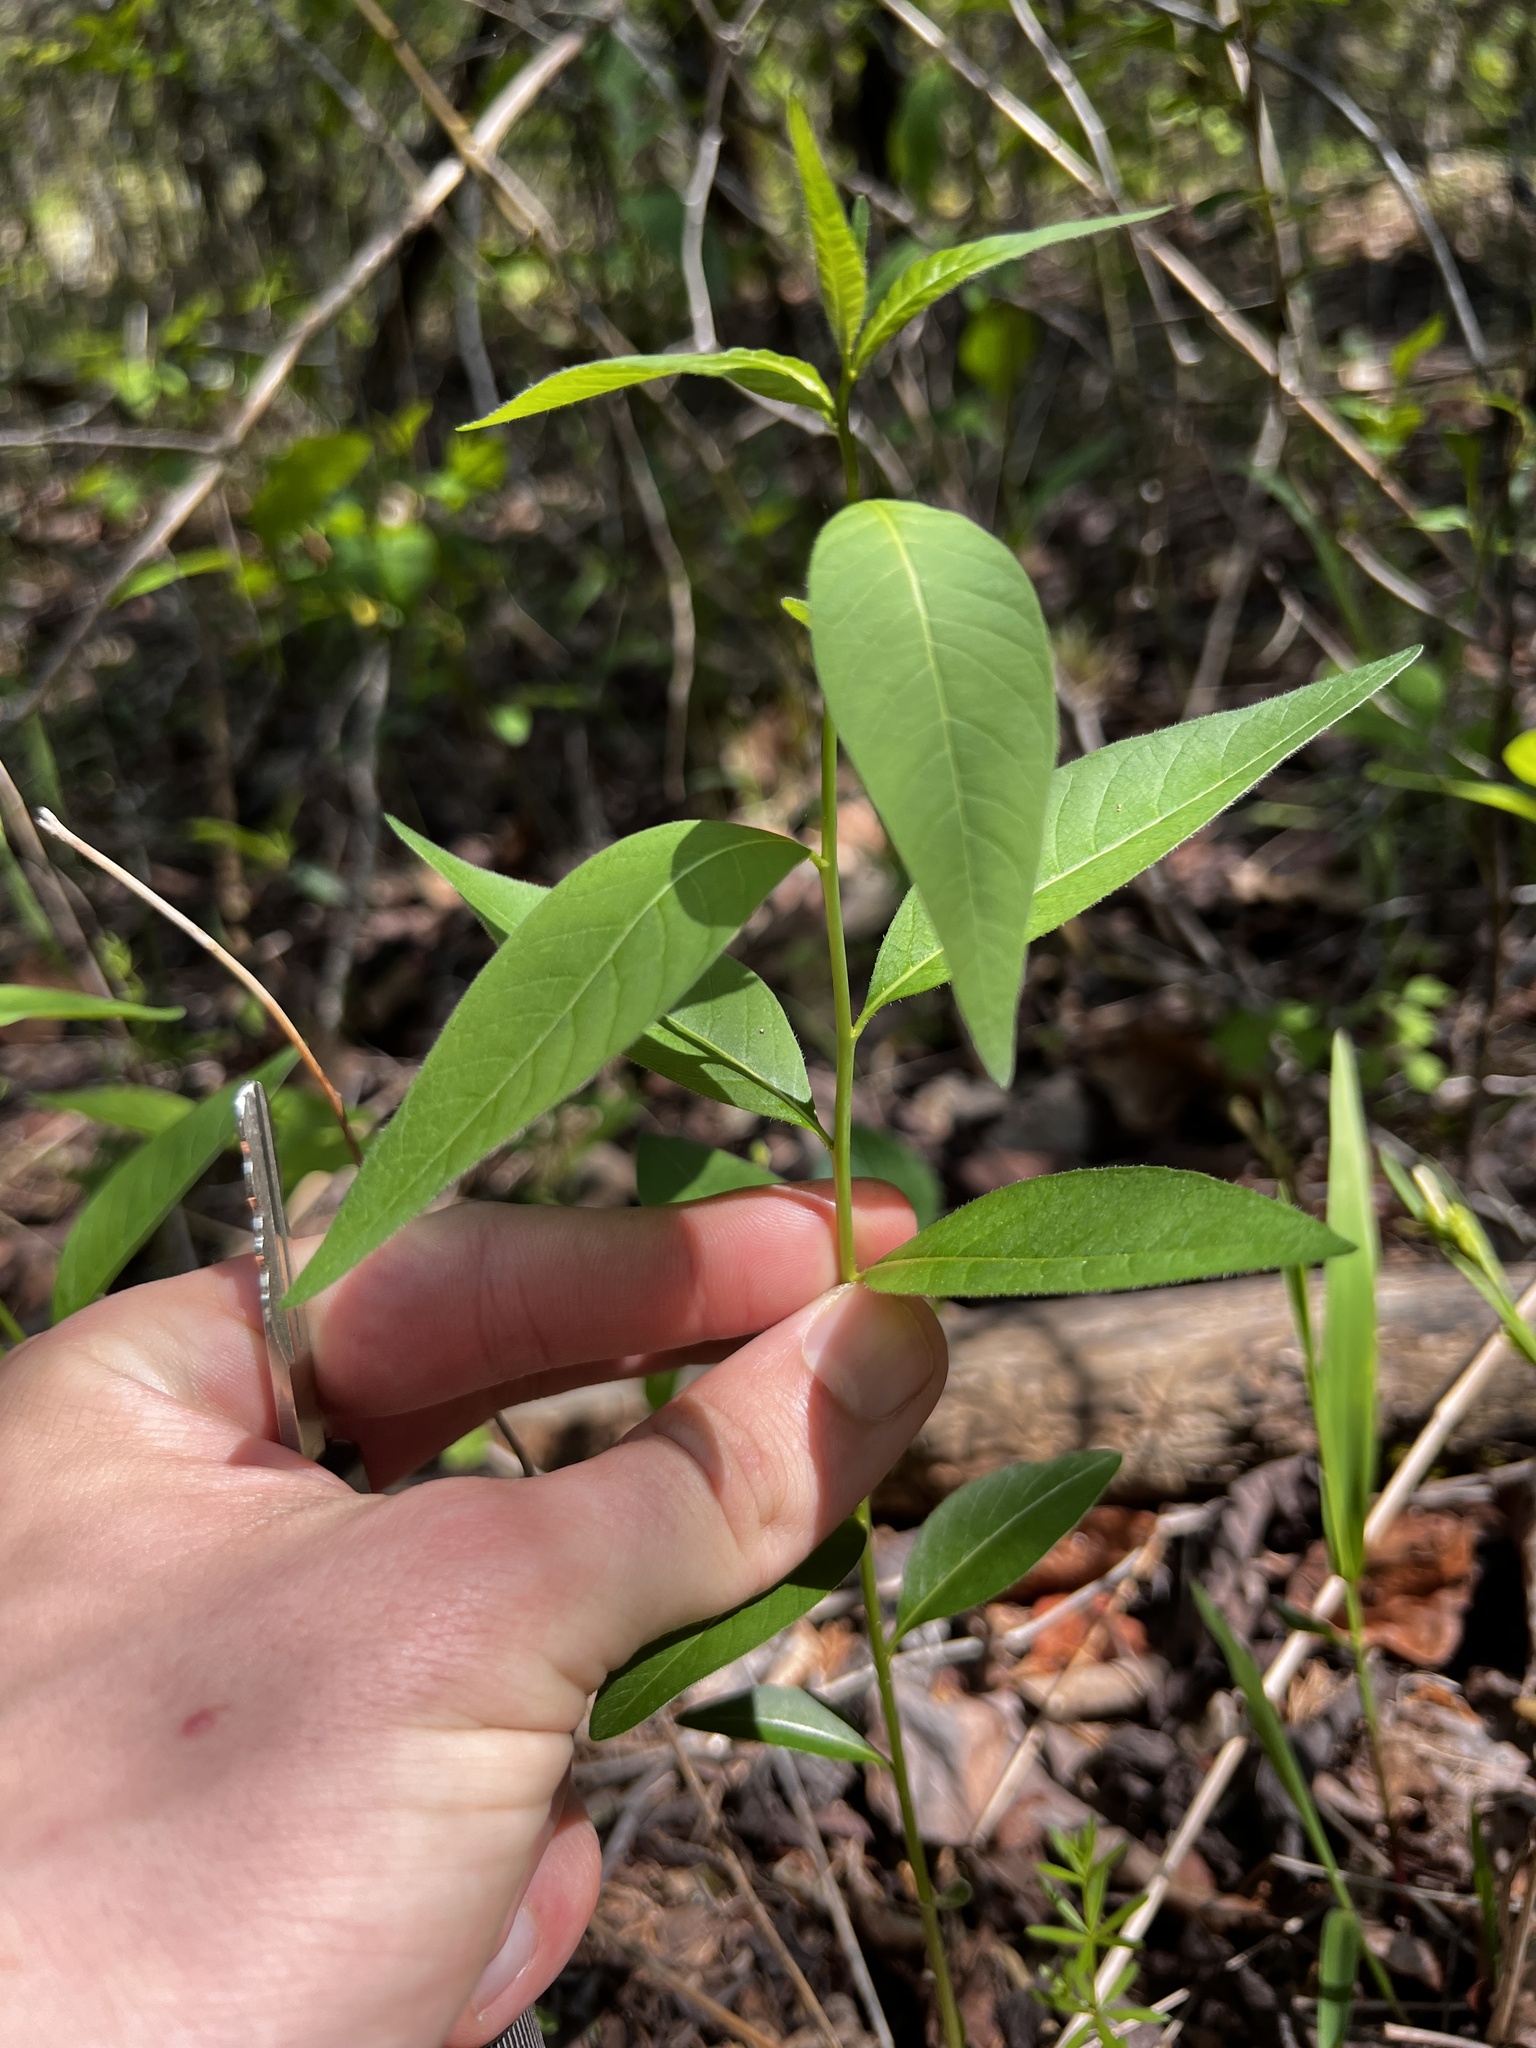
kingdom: Plantae
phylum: Tracheophyta
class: Magnoliopsida
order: Gentianales
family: Apocynaceae
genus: Amsonia
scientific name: Amsonia tabernaemontana
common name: Texas-star
